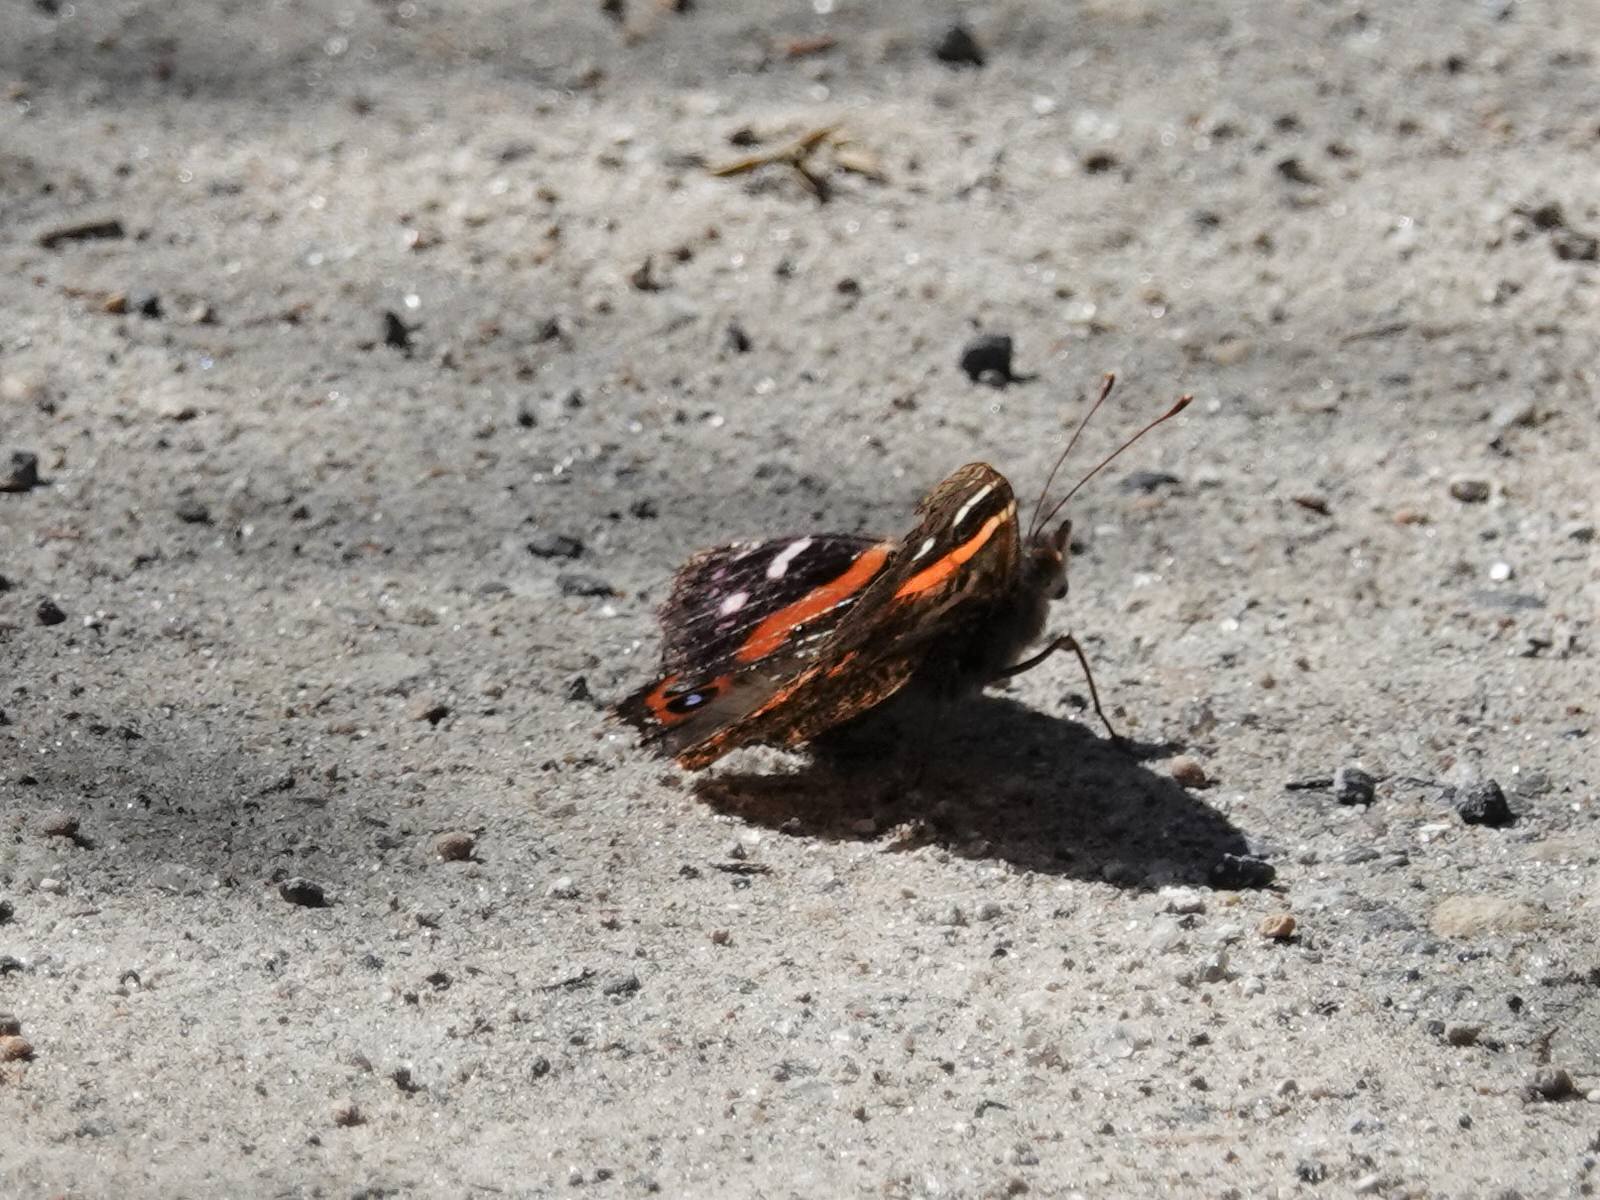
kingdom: Animalia
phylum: Arthropoda
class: Insecta
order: Lepidoptera
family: Nymphalidae
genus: Vanessa
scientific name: Vanessa gonerilla
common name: New zealand red admiral
